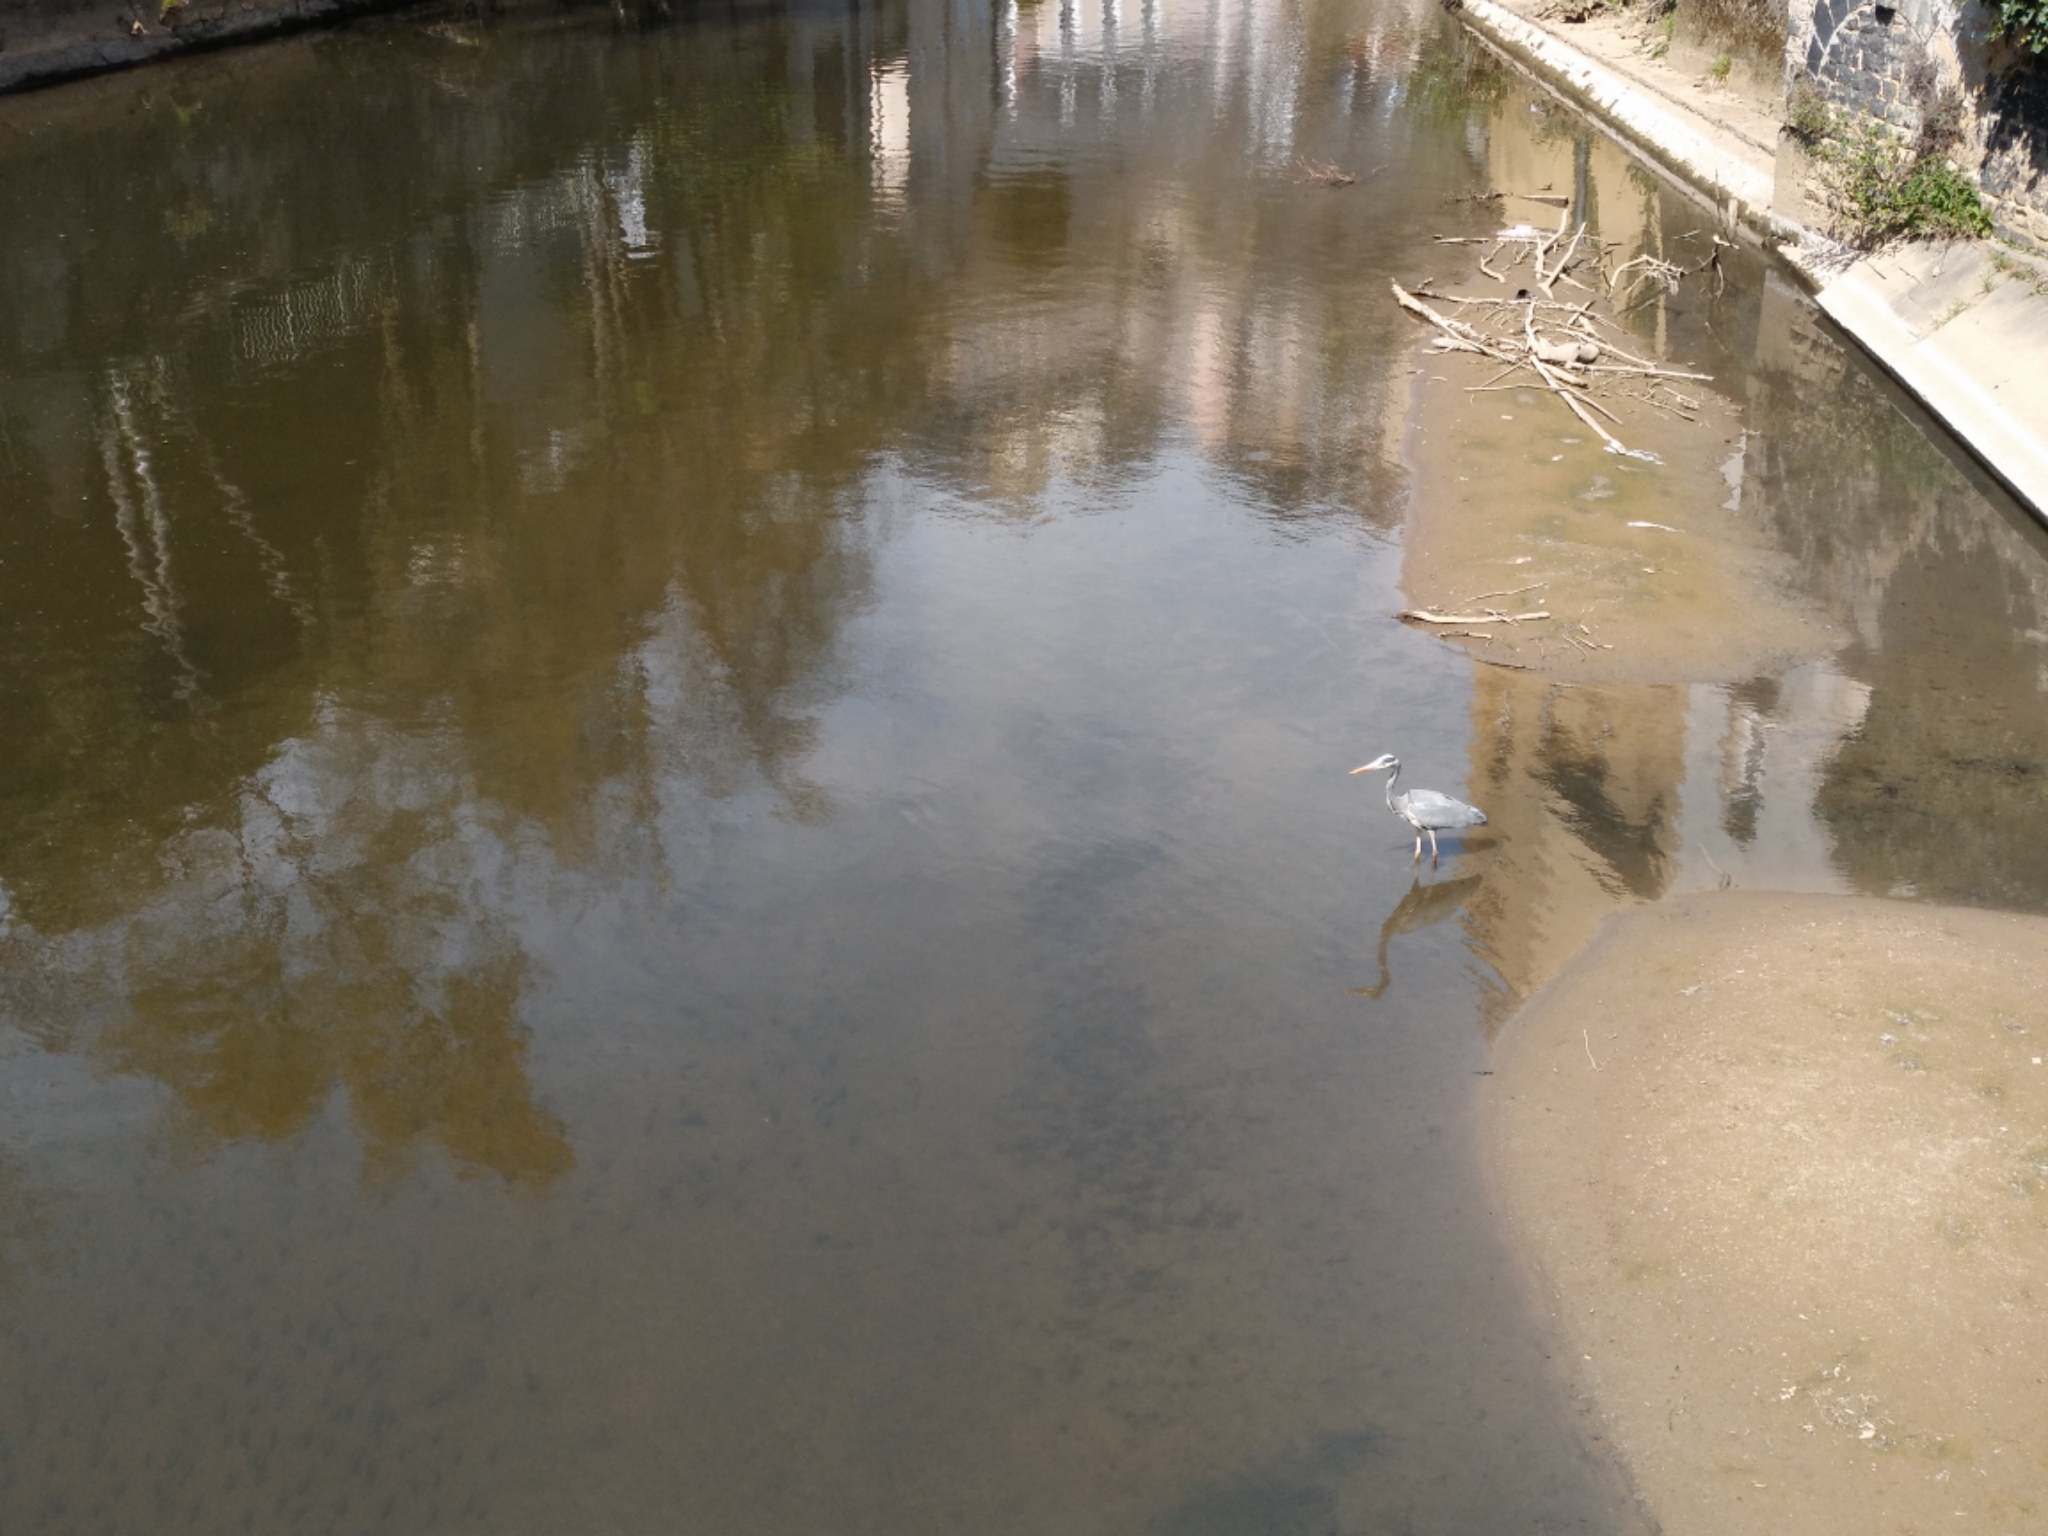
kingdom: Animalia
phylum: Chordata
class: Aves
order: Pelecaniformes
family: Ardeidae
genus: Ardea
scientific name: Ardea cinerea
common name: Grey heron
